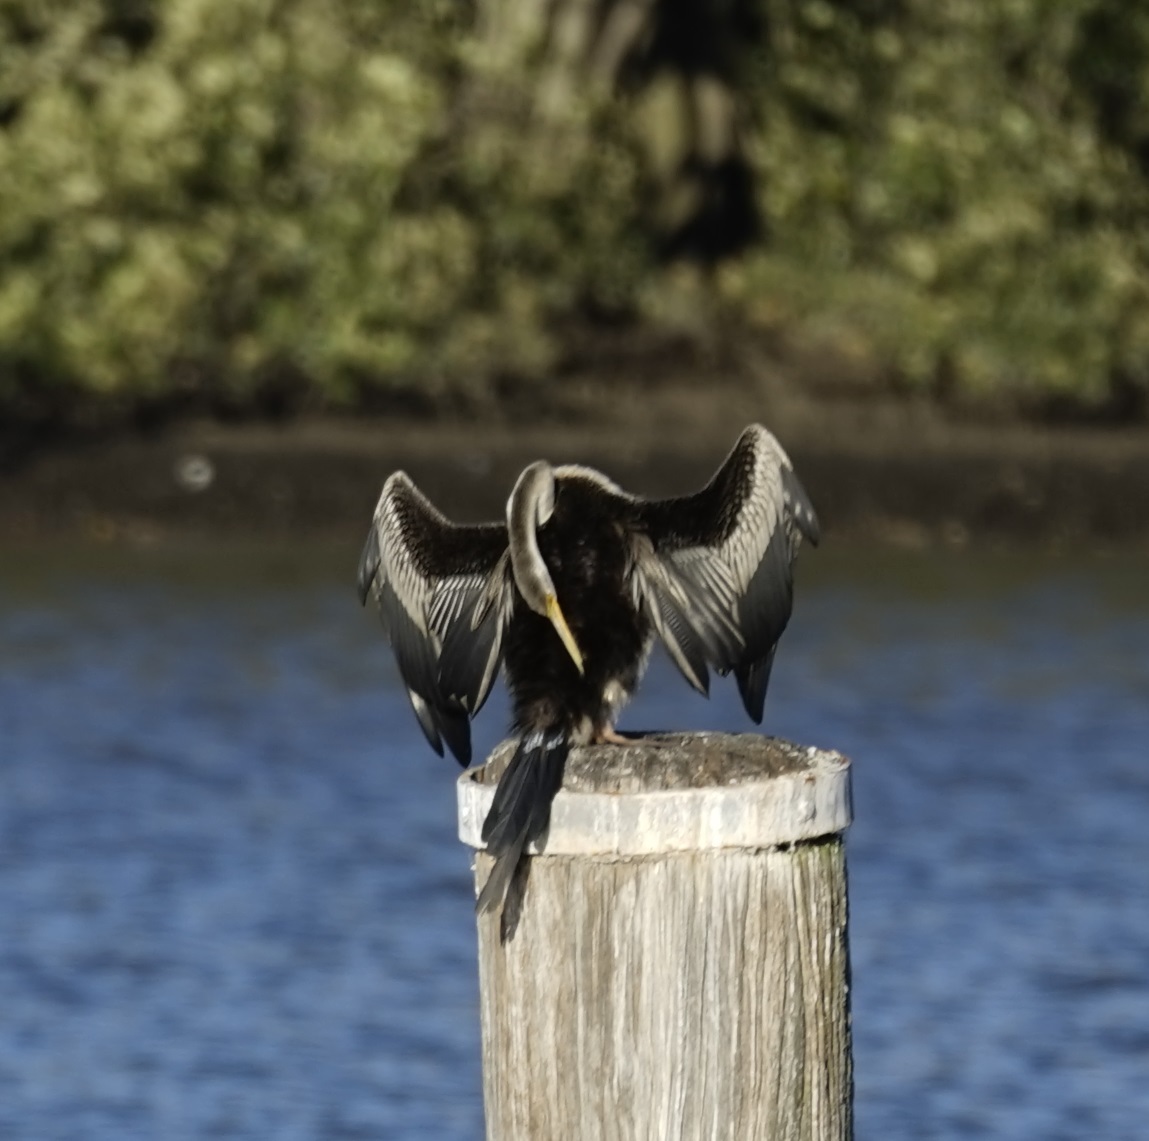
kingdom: Animalia
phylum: Chordata
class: Aves
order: Suliformes
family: Anhingidae
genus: Anhinga
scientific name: Anhinga novaehollandiae
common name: Australasian darter
